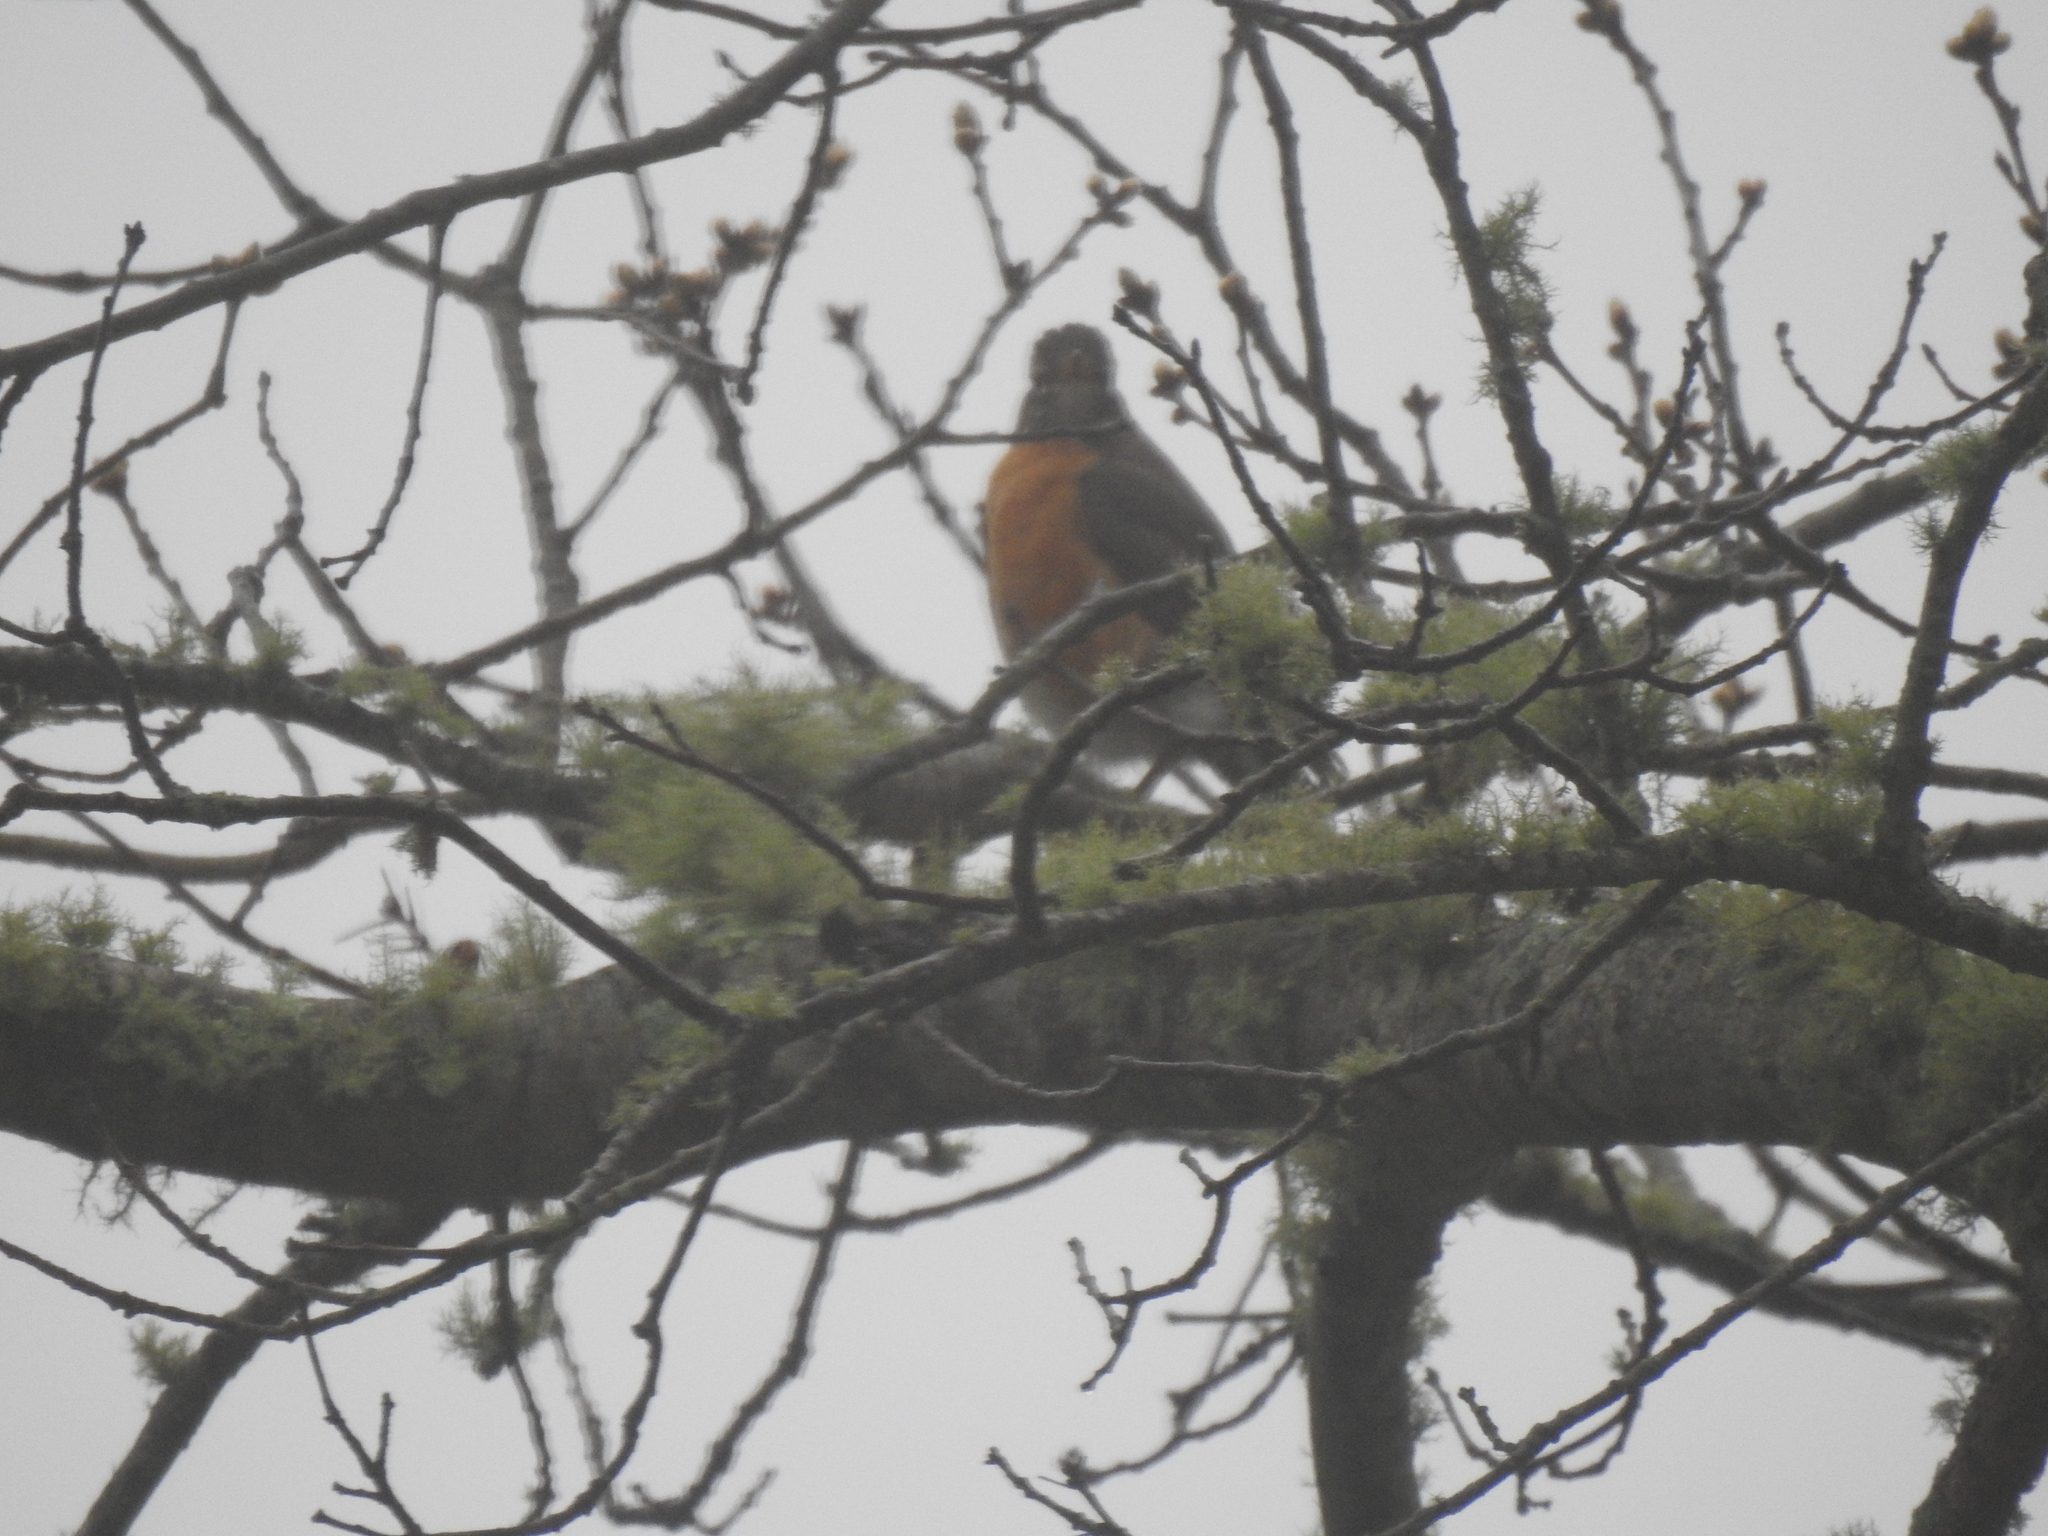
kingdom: Animalia
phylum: Chordata
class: Aves
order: Passeriformes
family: Turdidae
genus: Turdus
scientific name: Turdus migratorius
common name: American robin
